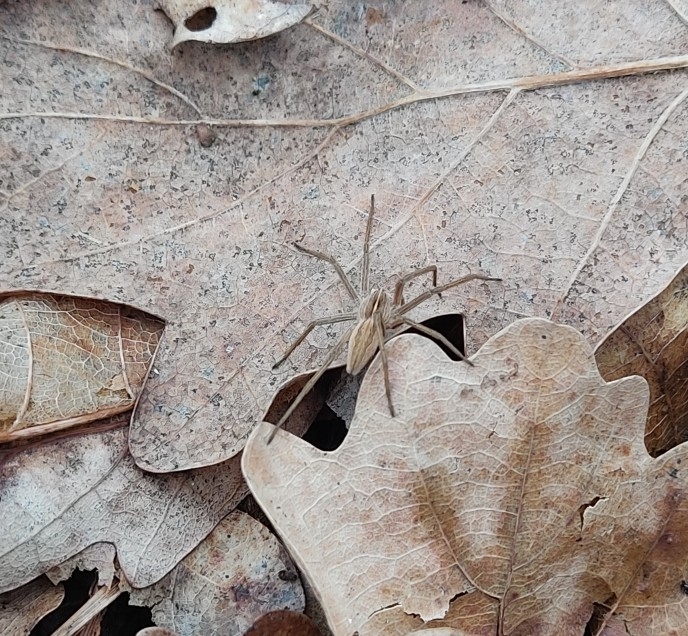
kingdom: Animalia
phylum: Arthropoda
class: Arachnida
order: Araneae
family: Pisauridae
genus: Pisaura
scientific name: Pisaura mirabilis
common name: Tent spider
